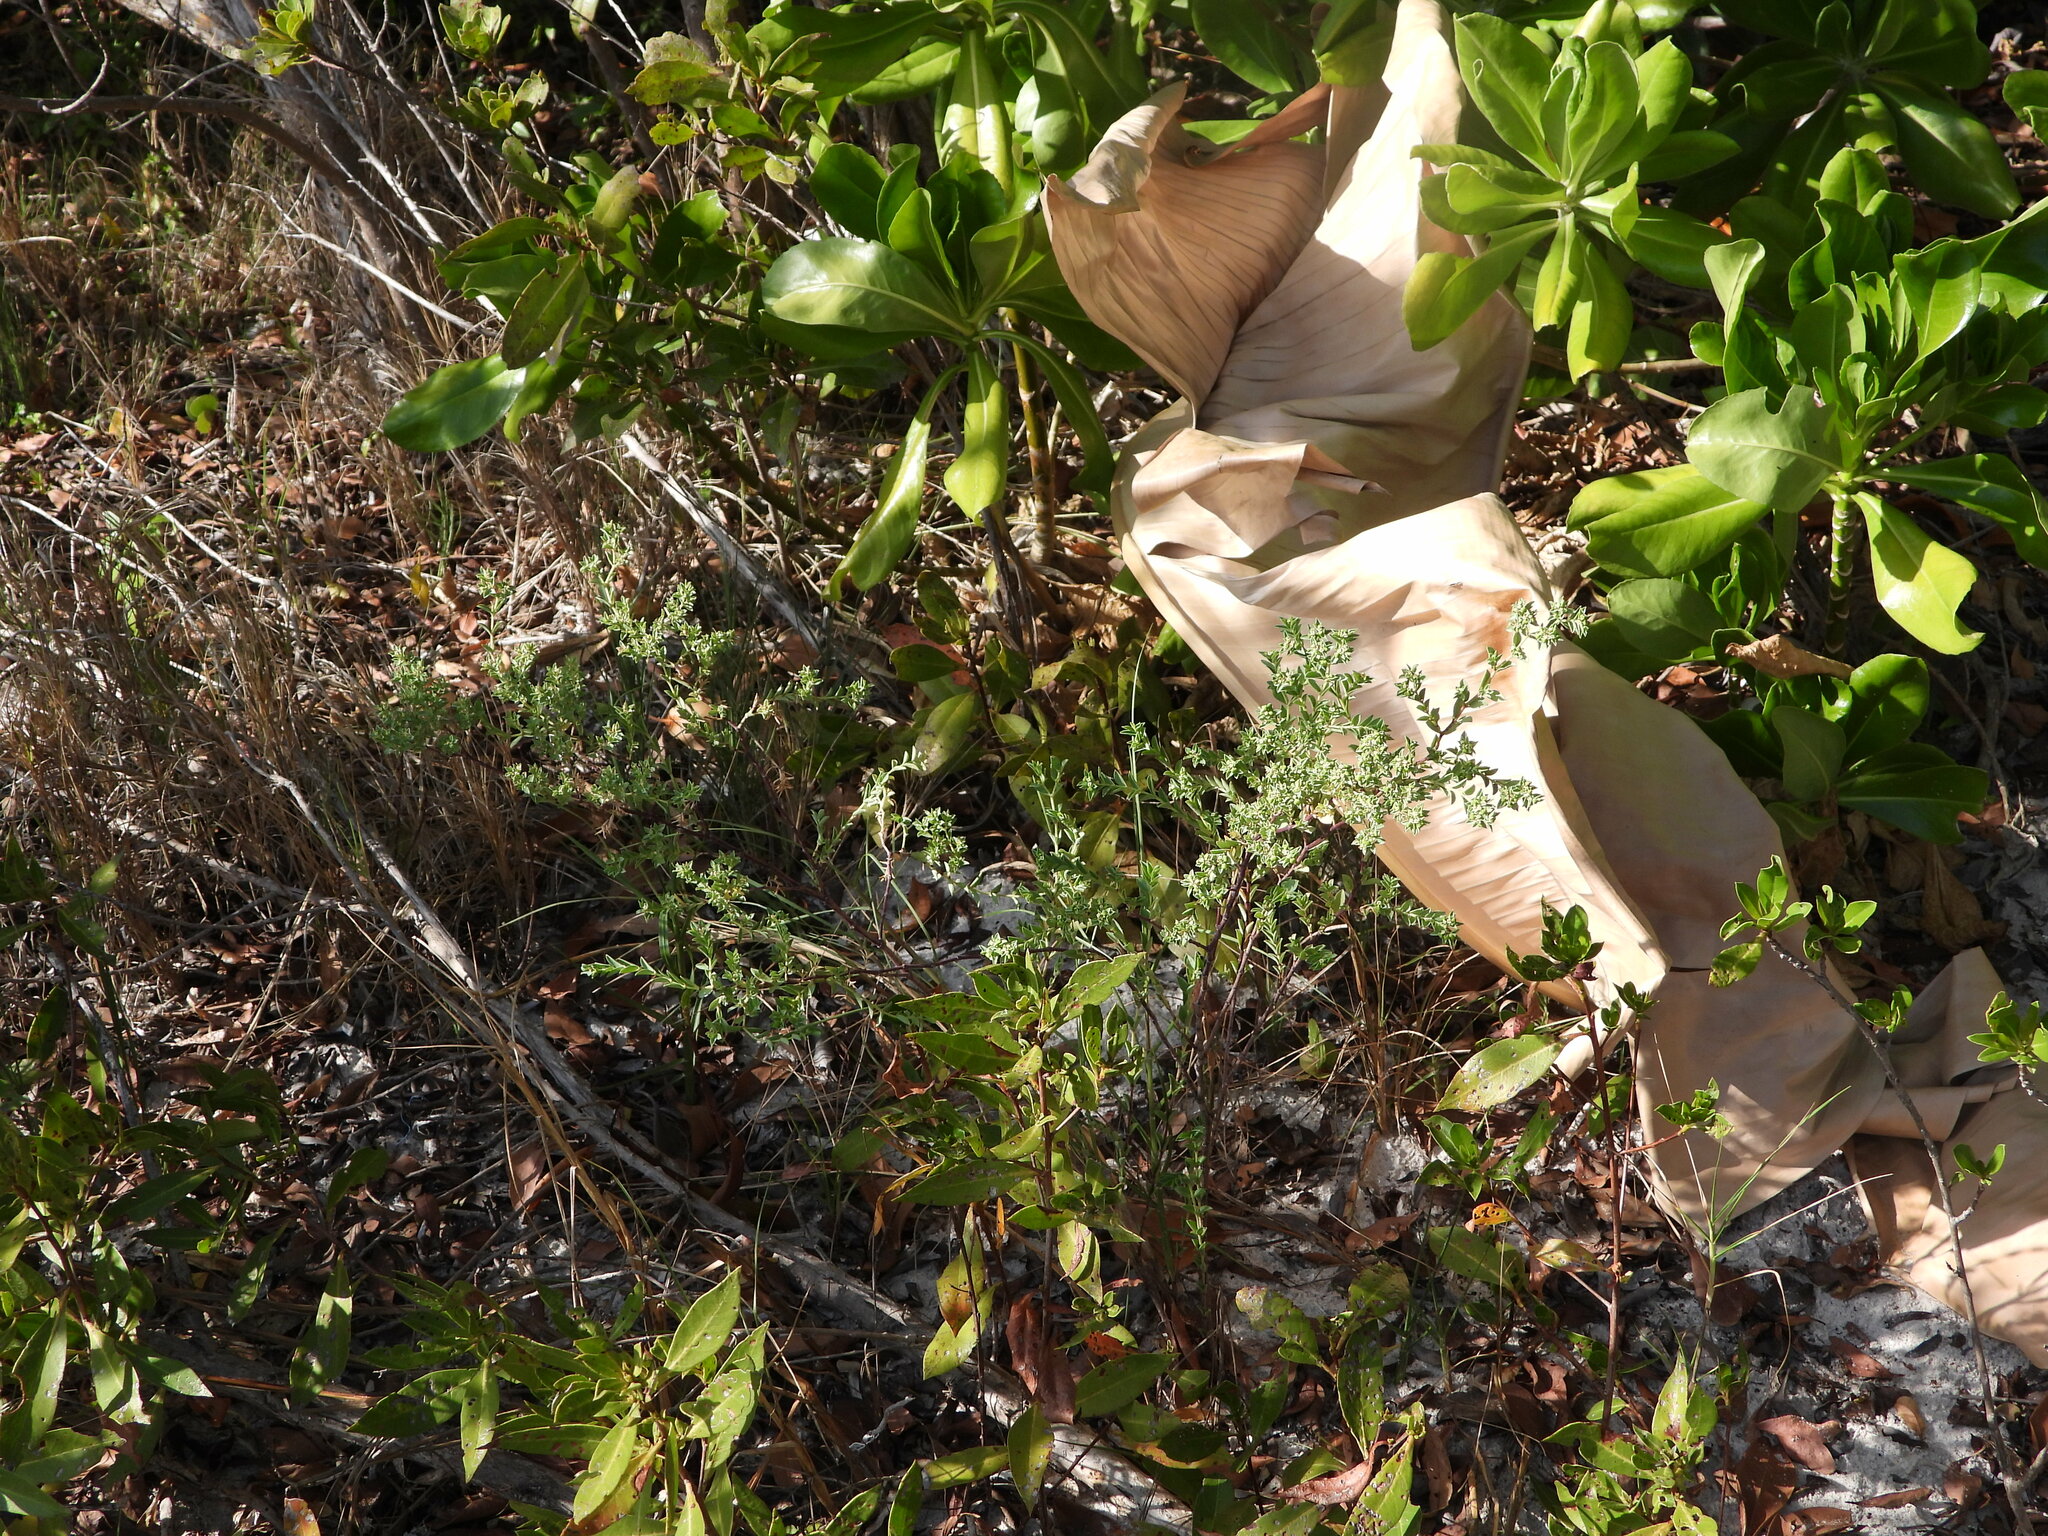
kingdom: Plantae
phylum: Tracheophyta
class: Magnoliopsida
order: Malpighiales
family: Euphorbiaceae
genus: Euphorbia
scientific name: Euphorbia mesembryanthemifolia
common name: Coastal beach sandmat
